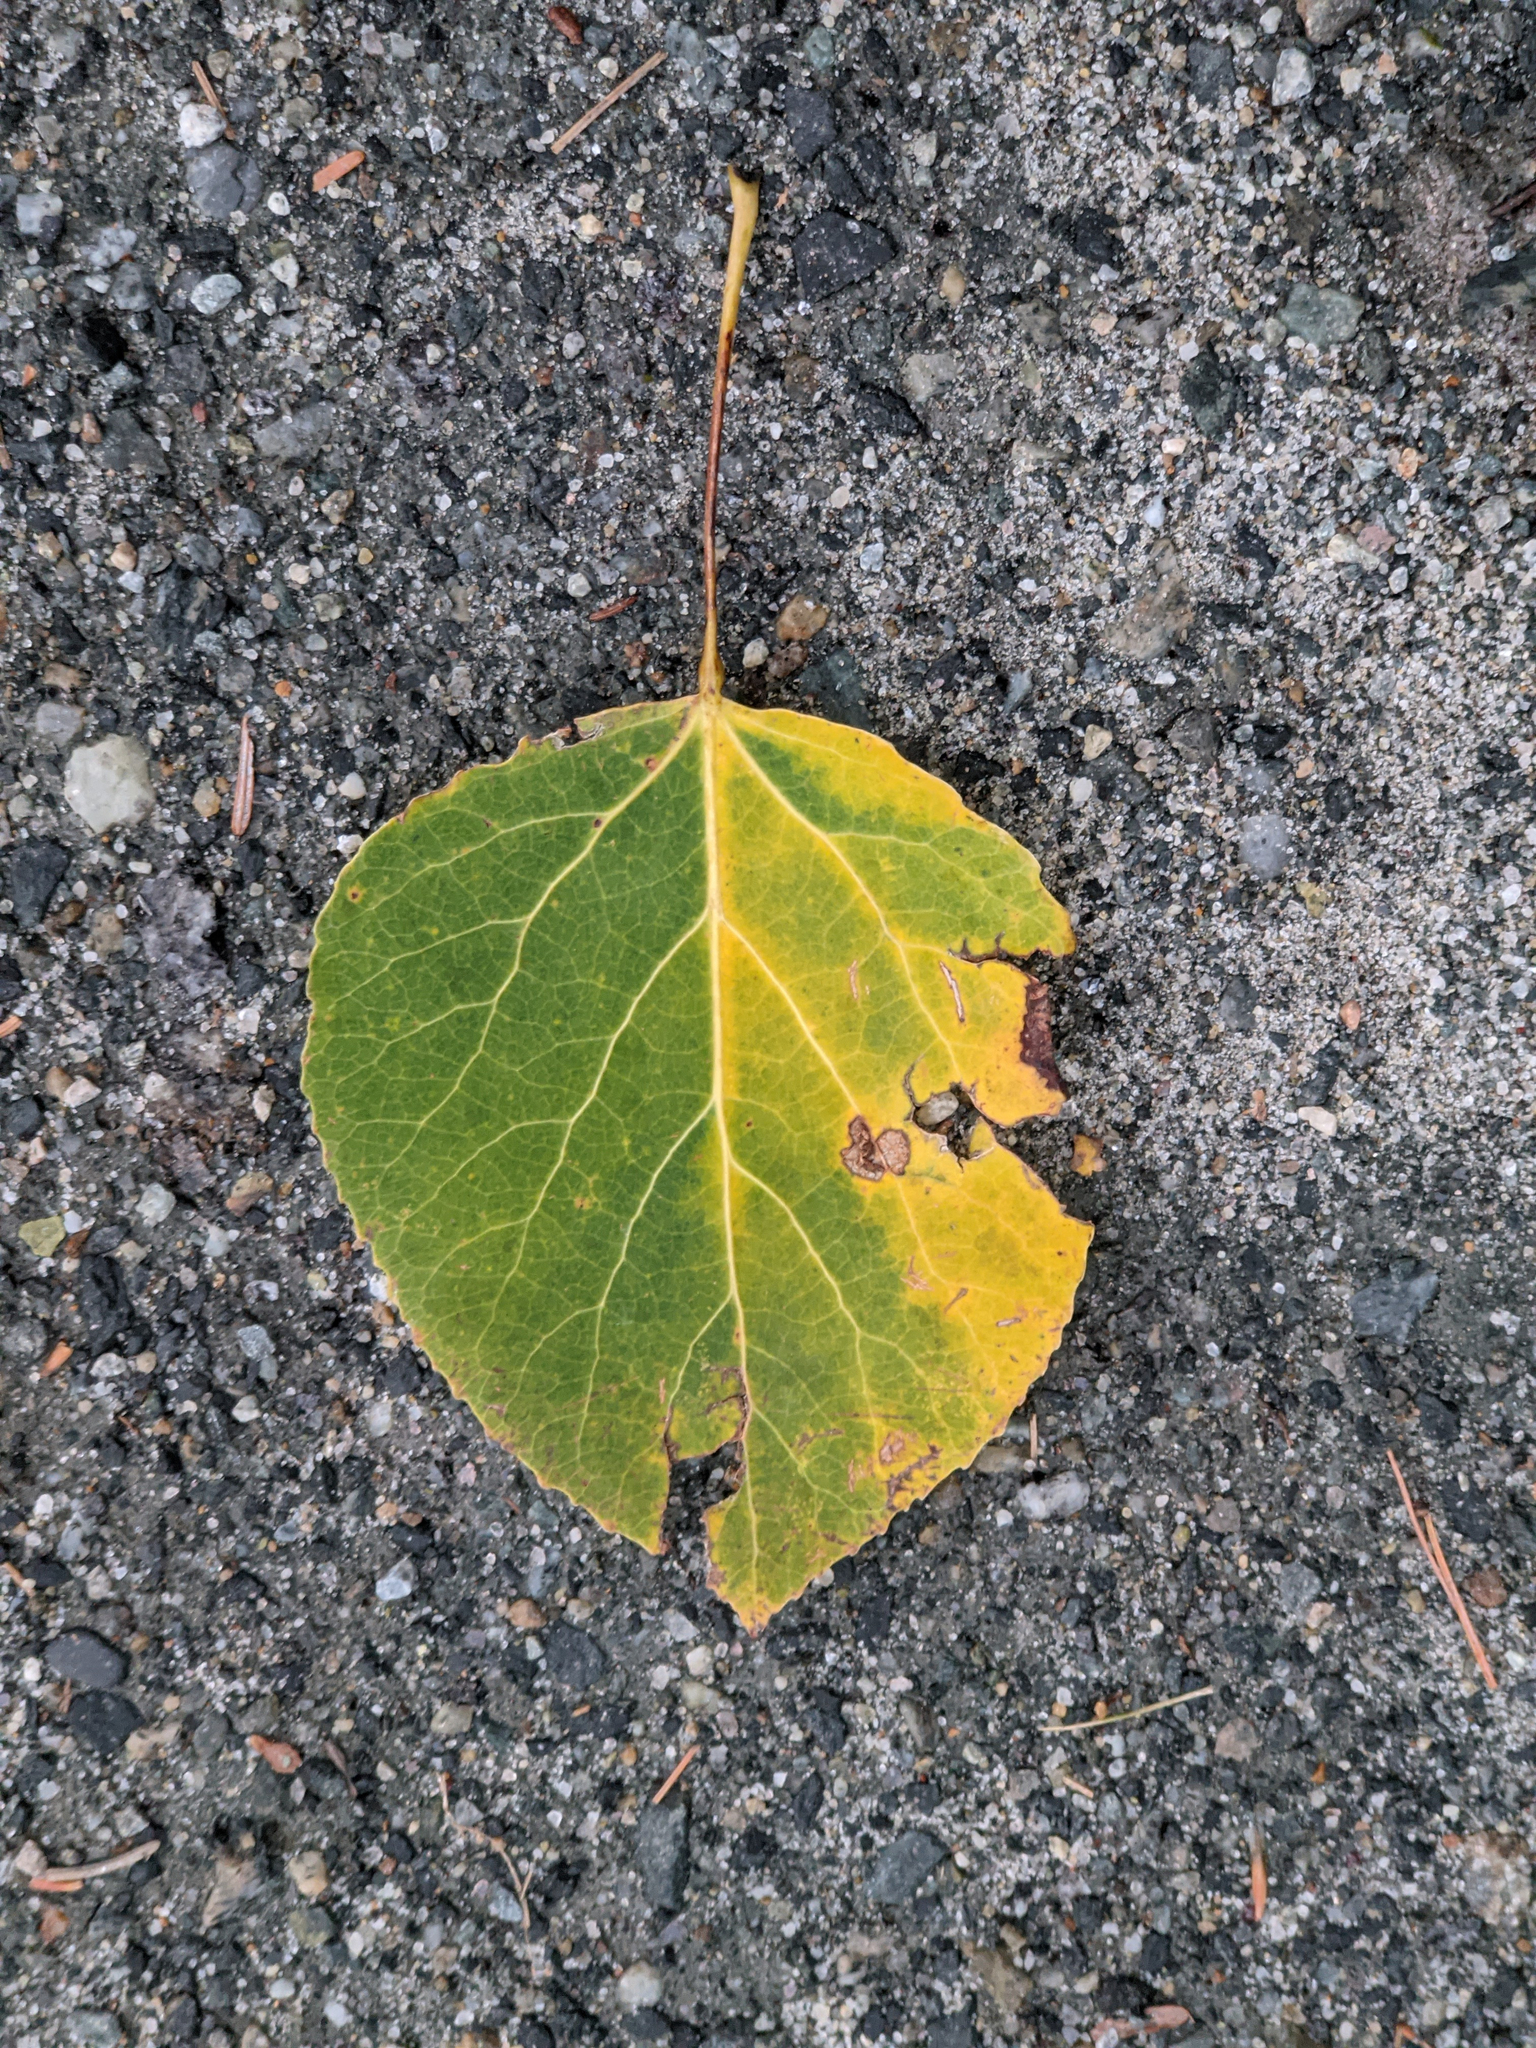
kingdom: Plantae
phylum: Tracheophyta
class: Magnoliopsida
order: Malpighiales
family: Salicaceae
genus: Populus
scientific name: Populus tremuloides
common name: Quaking aspen
